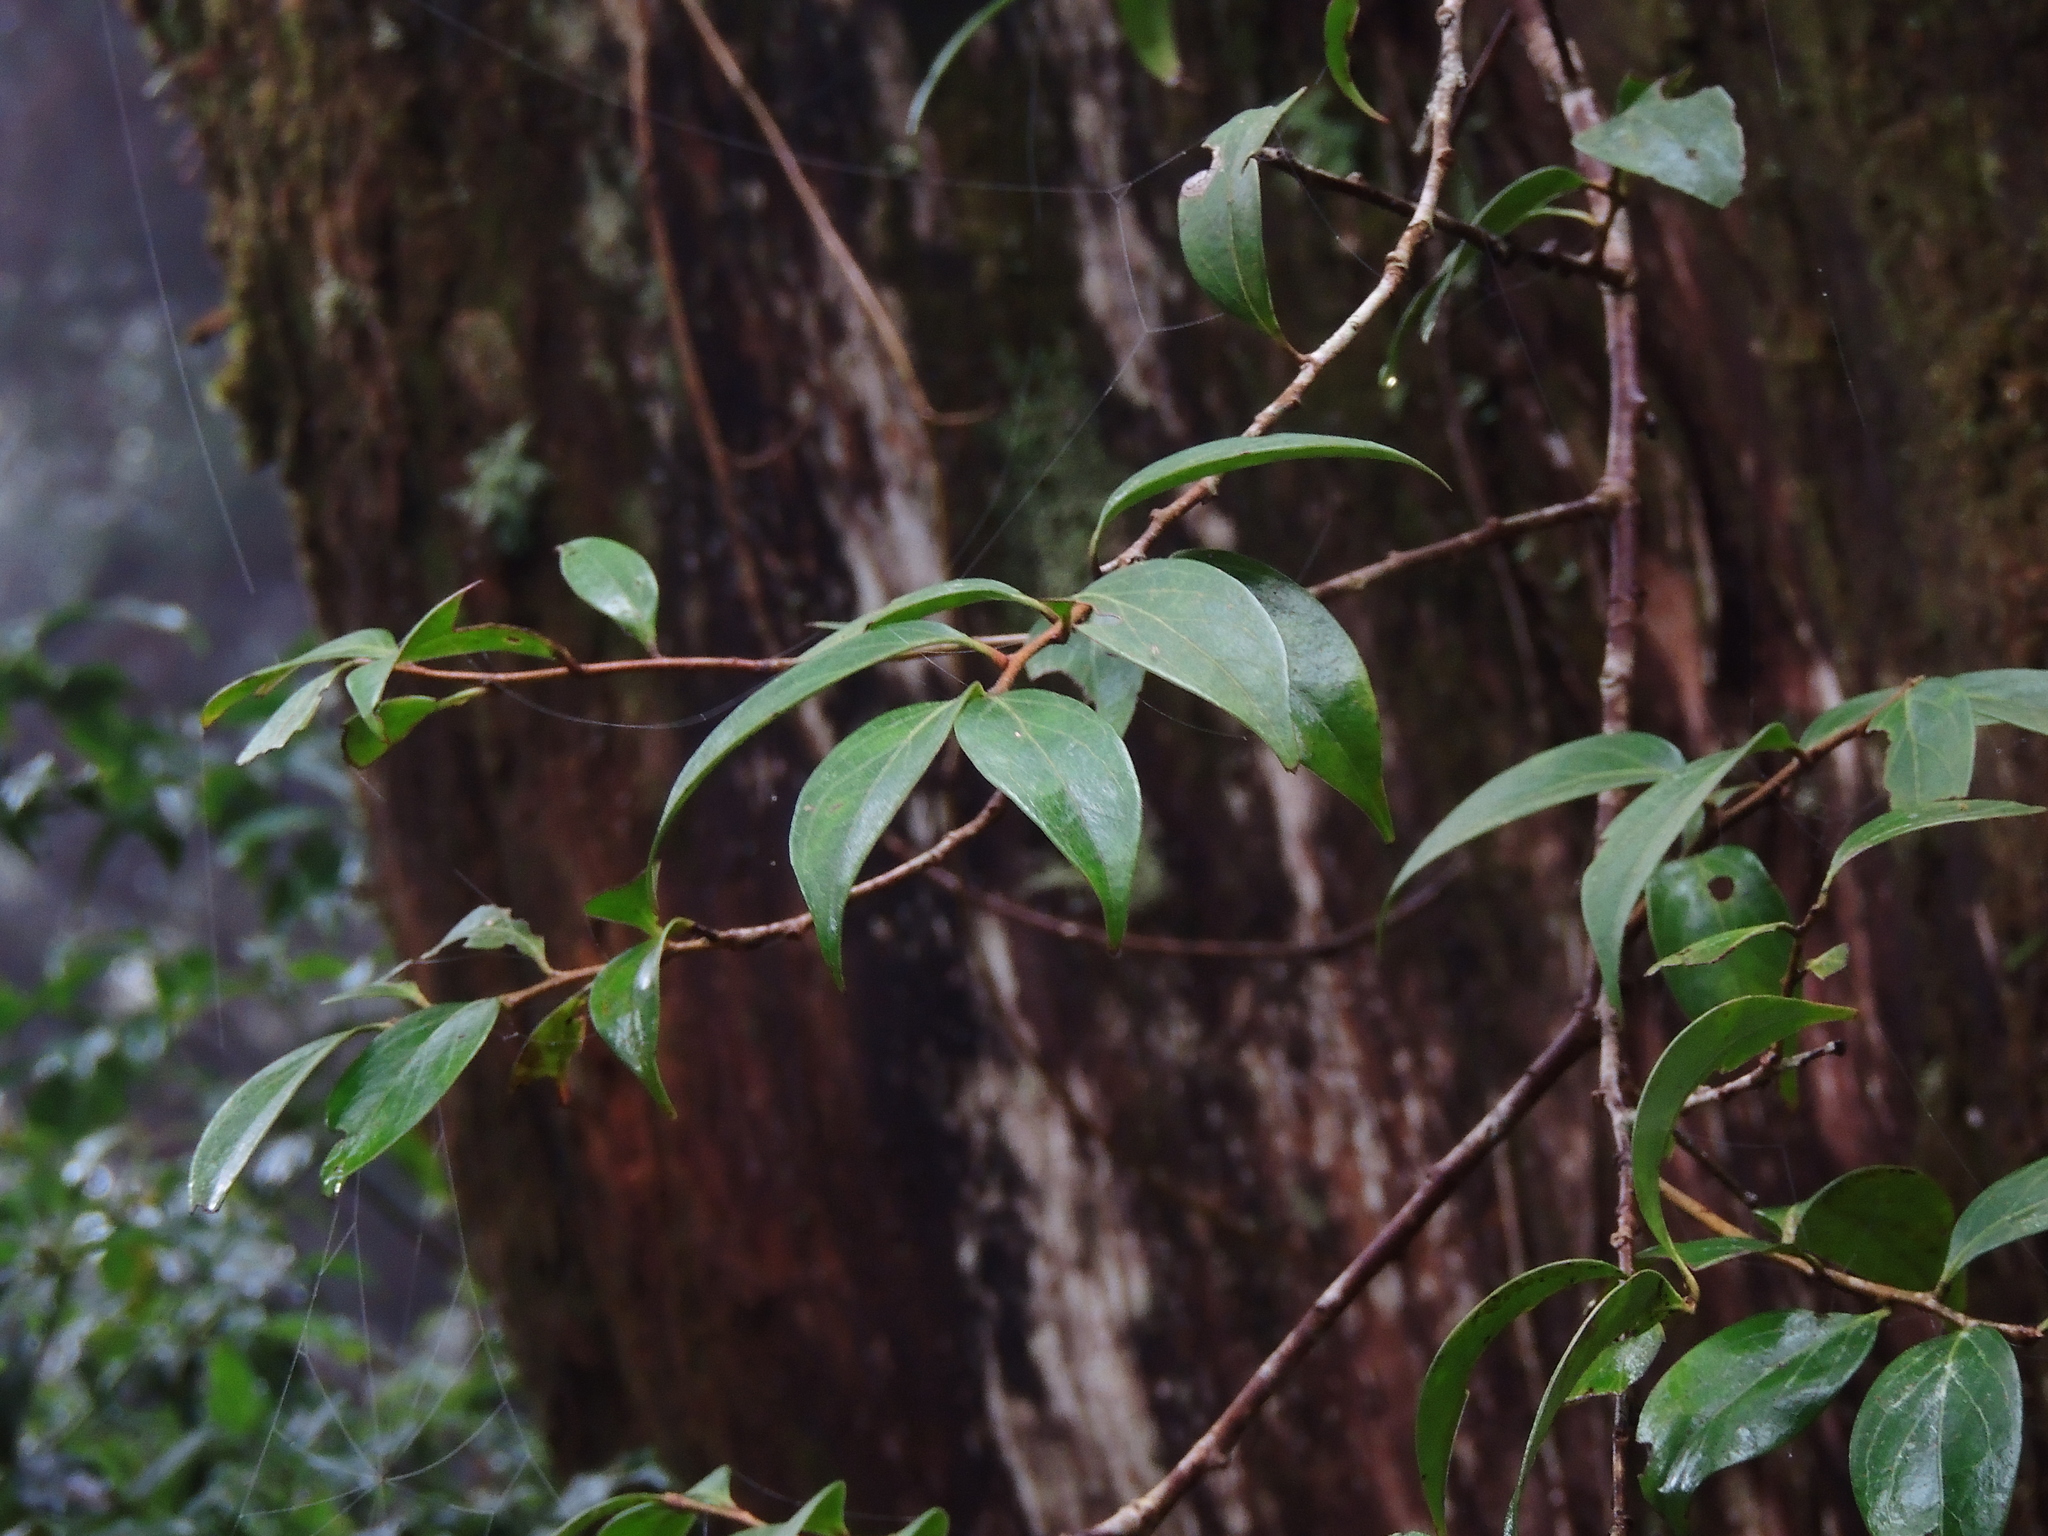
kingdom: Plantae
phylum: Tracheophyta
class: Magnoliopsida
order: Ericales
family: Ericaceae
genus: Vaccinium
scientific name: Vaccinium dunalianum
